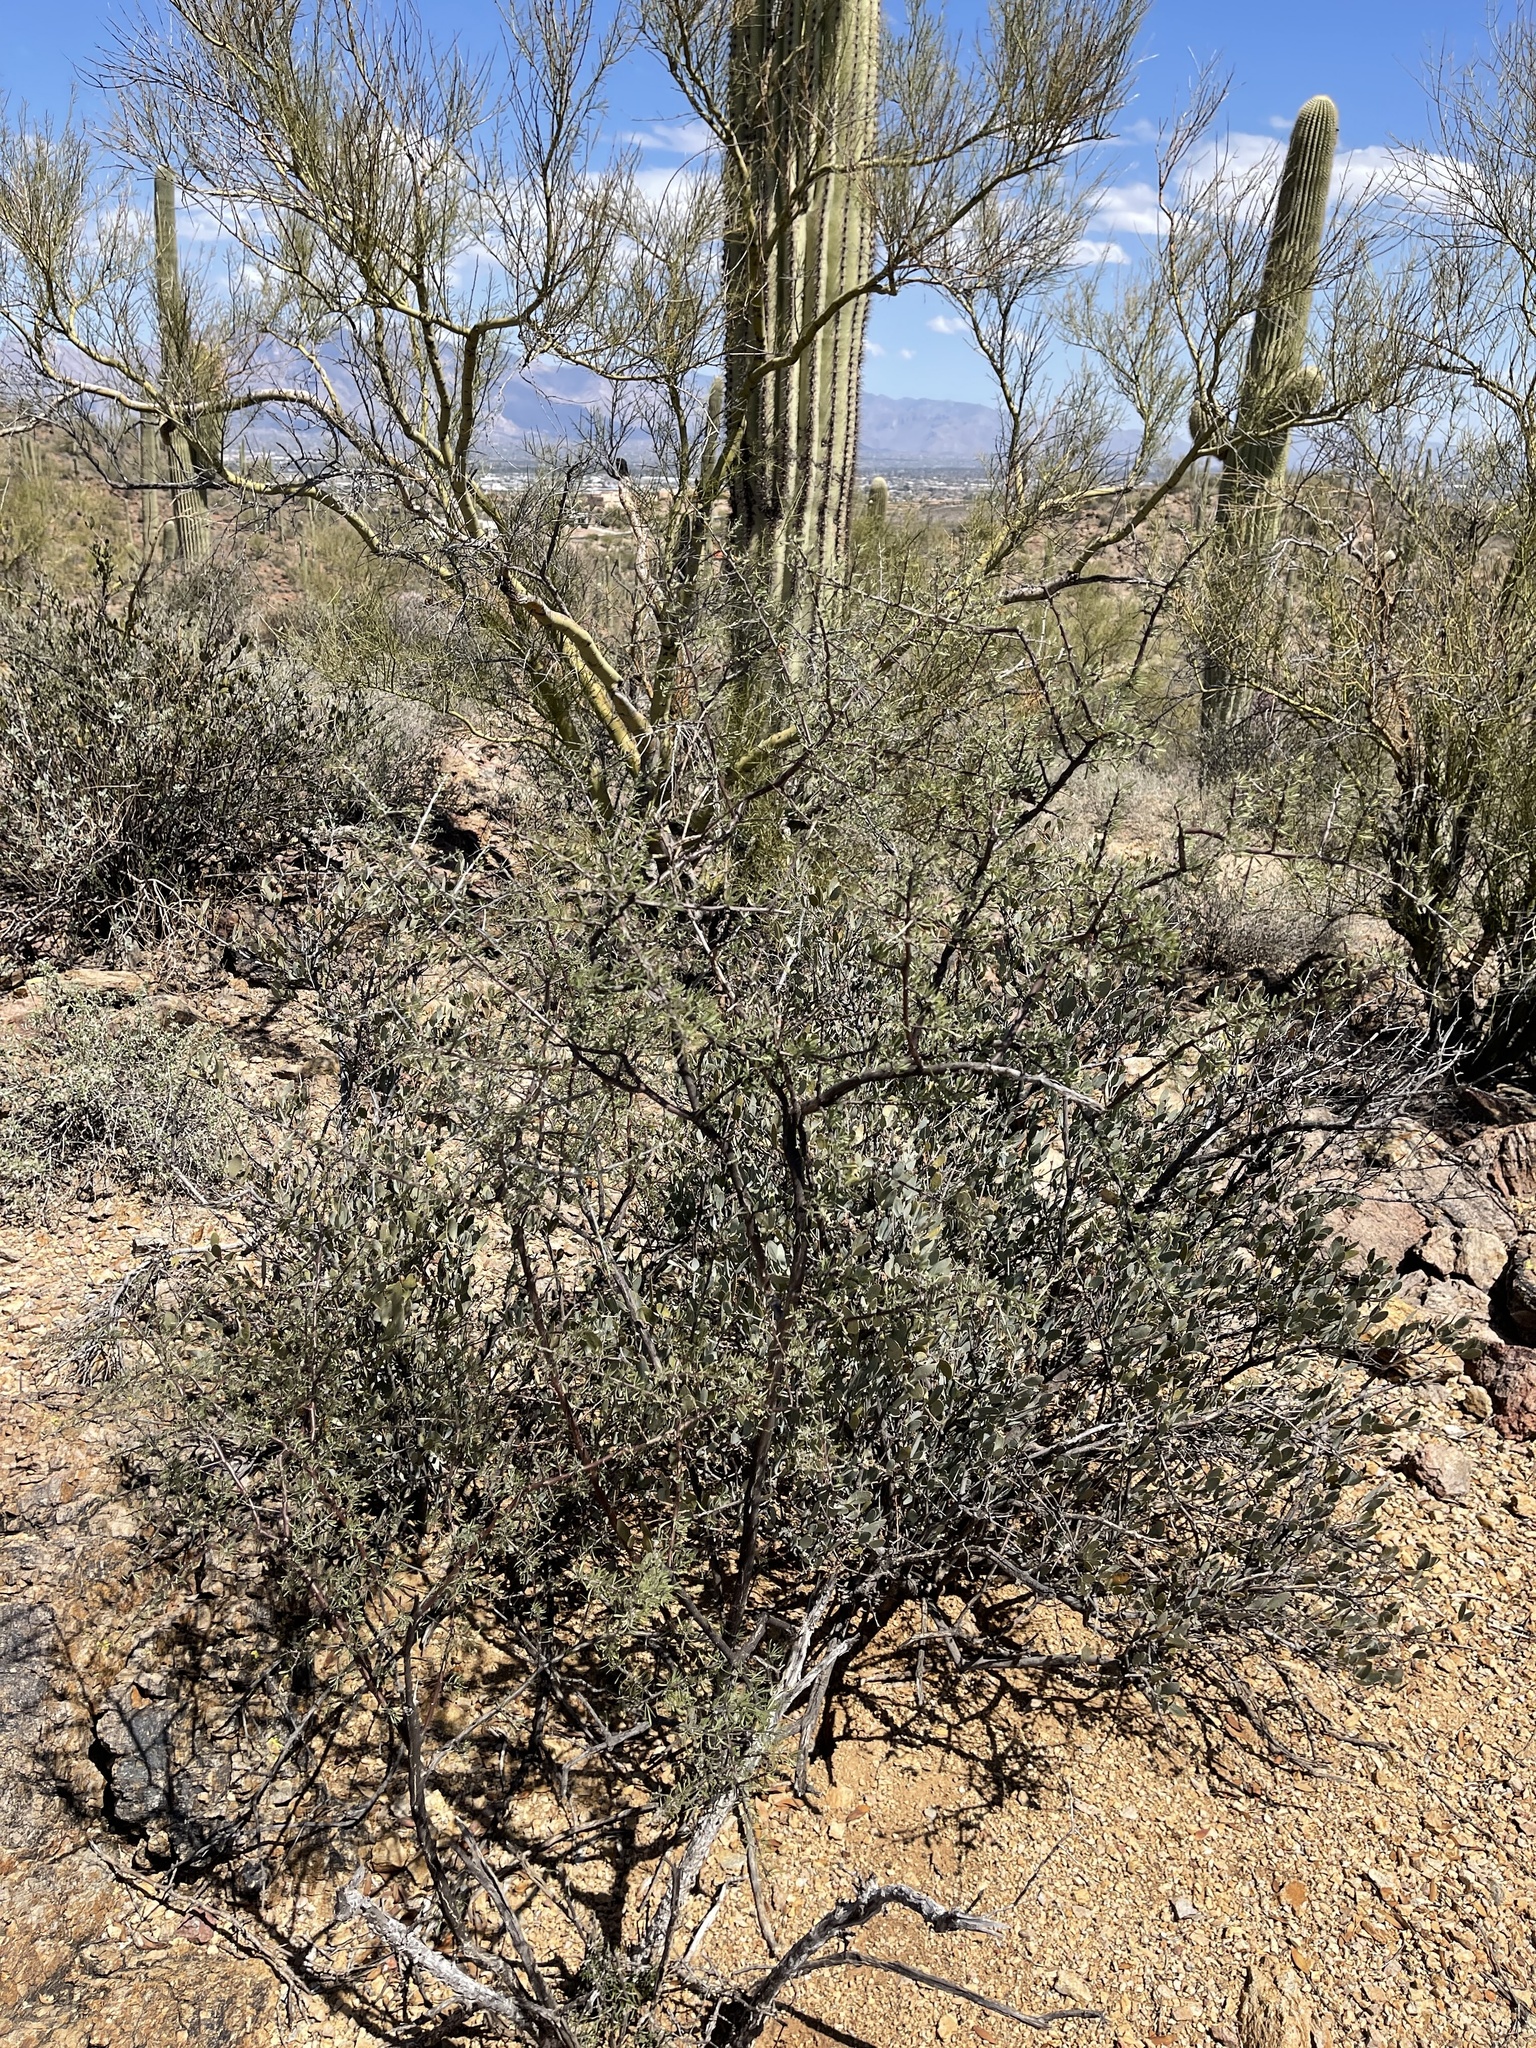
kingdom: Plantae
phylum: Tracheophyta
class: Magnoliopsida
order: Solanales
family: Solanaceae
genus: Lycium
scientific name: Lycium berlandieri
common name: Berlandier wolfberry
